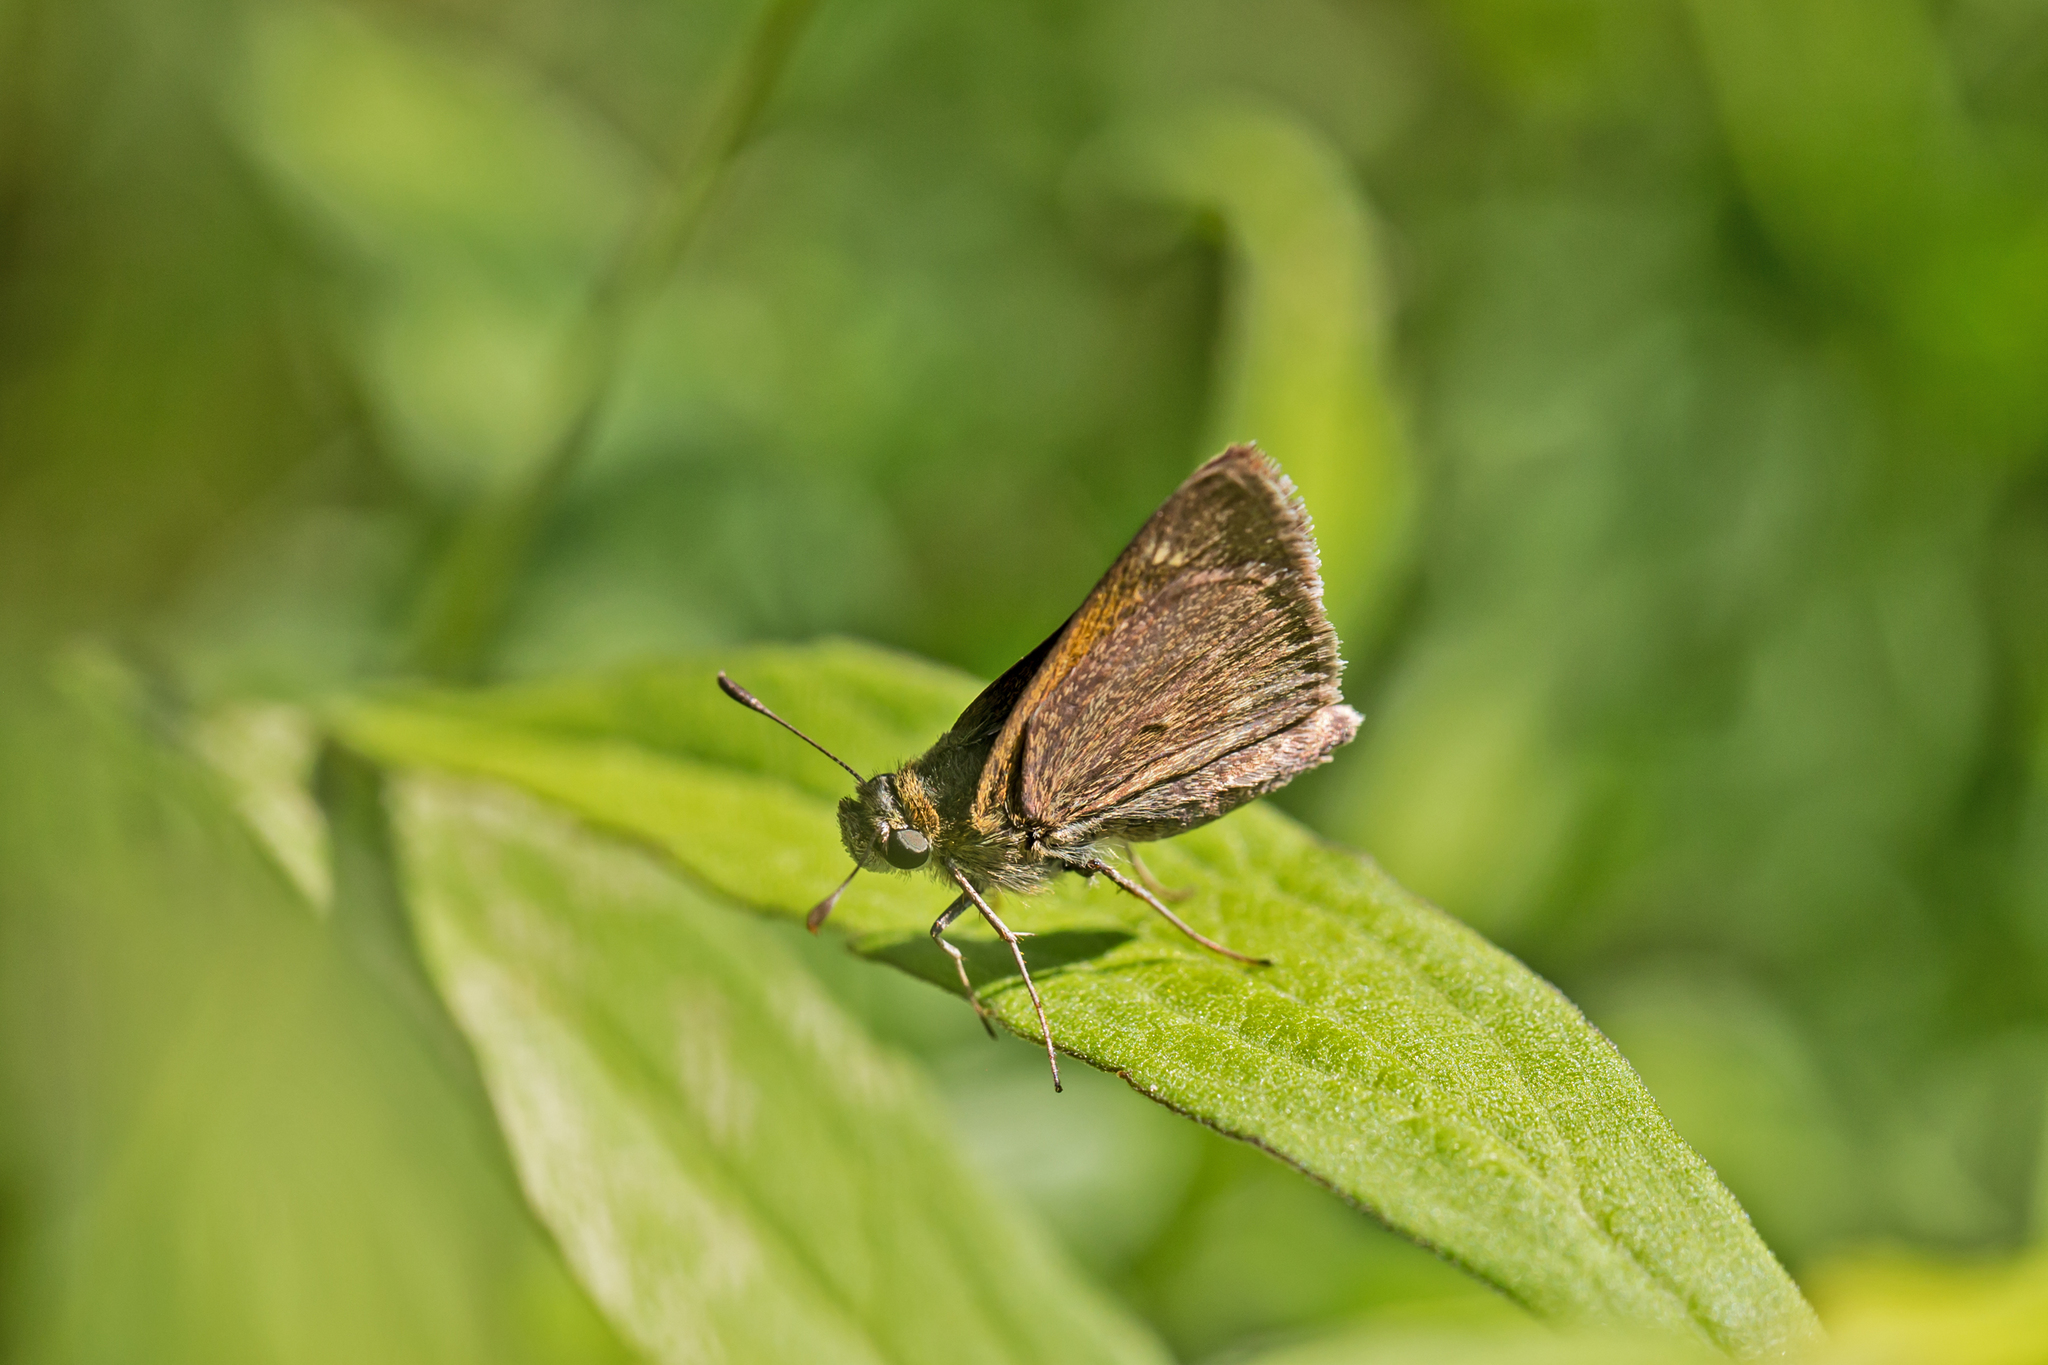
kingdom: Animalia
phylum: Arthropoda
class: Insecta
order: Lepidoptera
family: Hesperiidae
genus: Polites
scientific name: Polites themistocles
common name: Tawny-edged skipper
